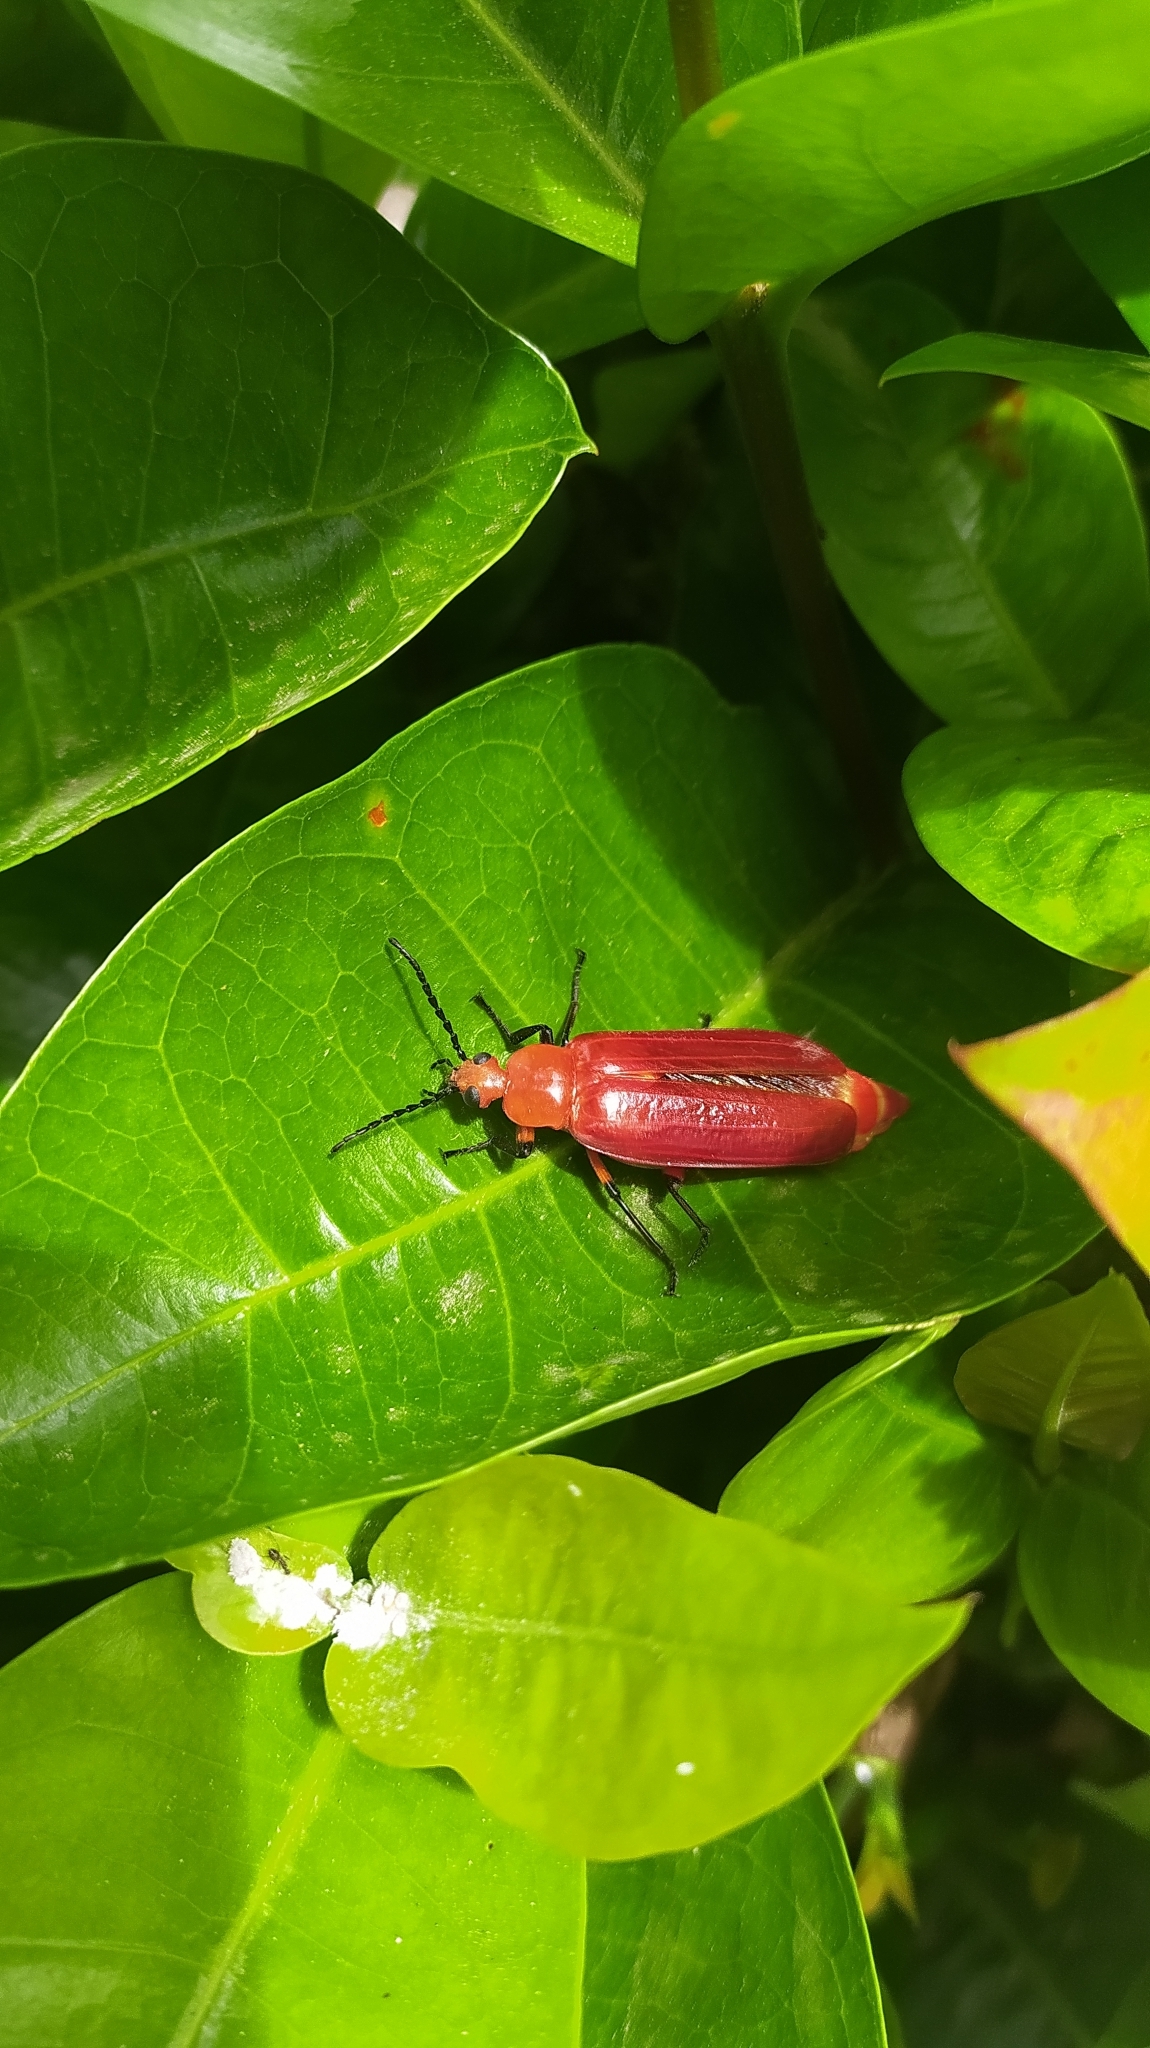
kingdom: Animalia
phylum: Arthropoda
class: Insecta
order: Coleoptera
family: Meloidae
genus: Horia
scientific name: Horia fabriciana
